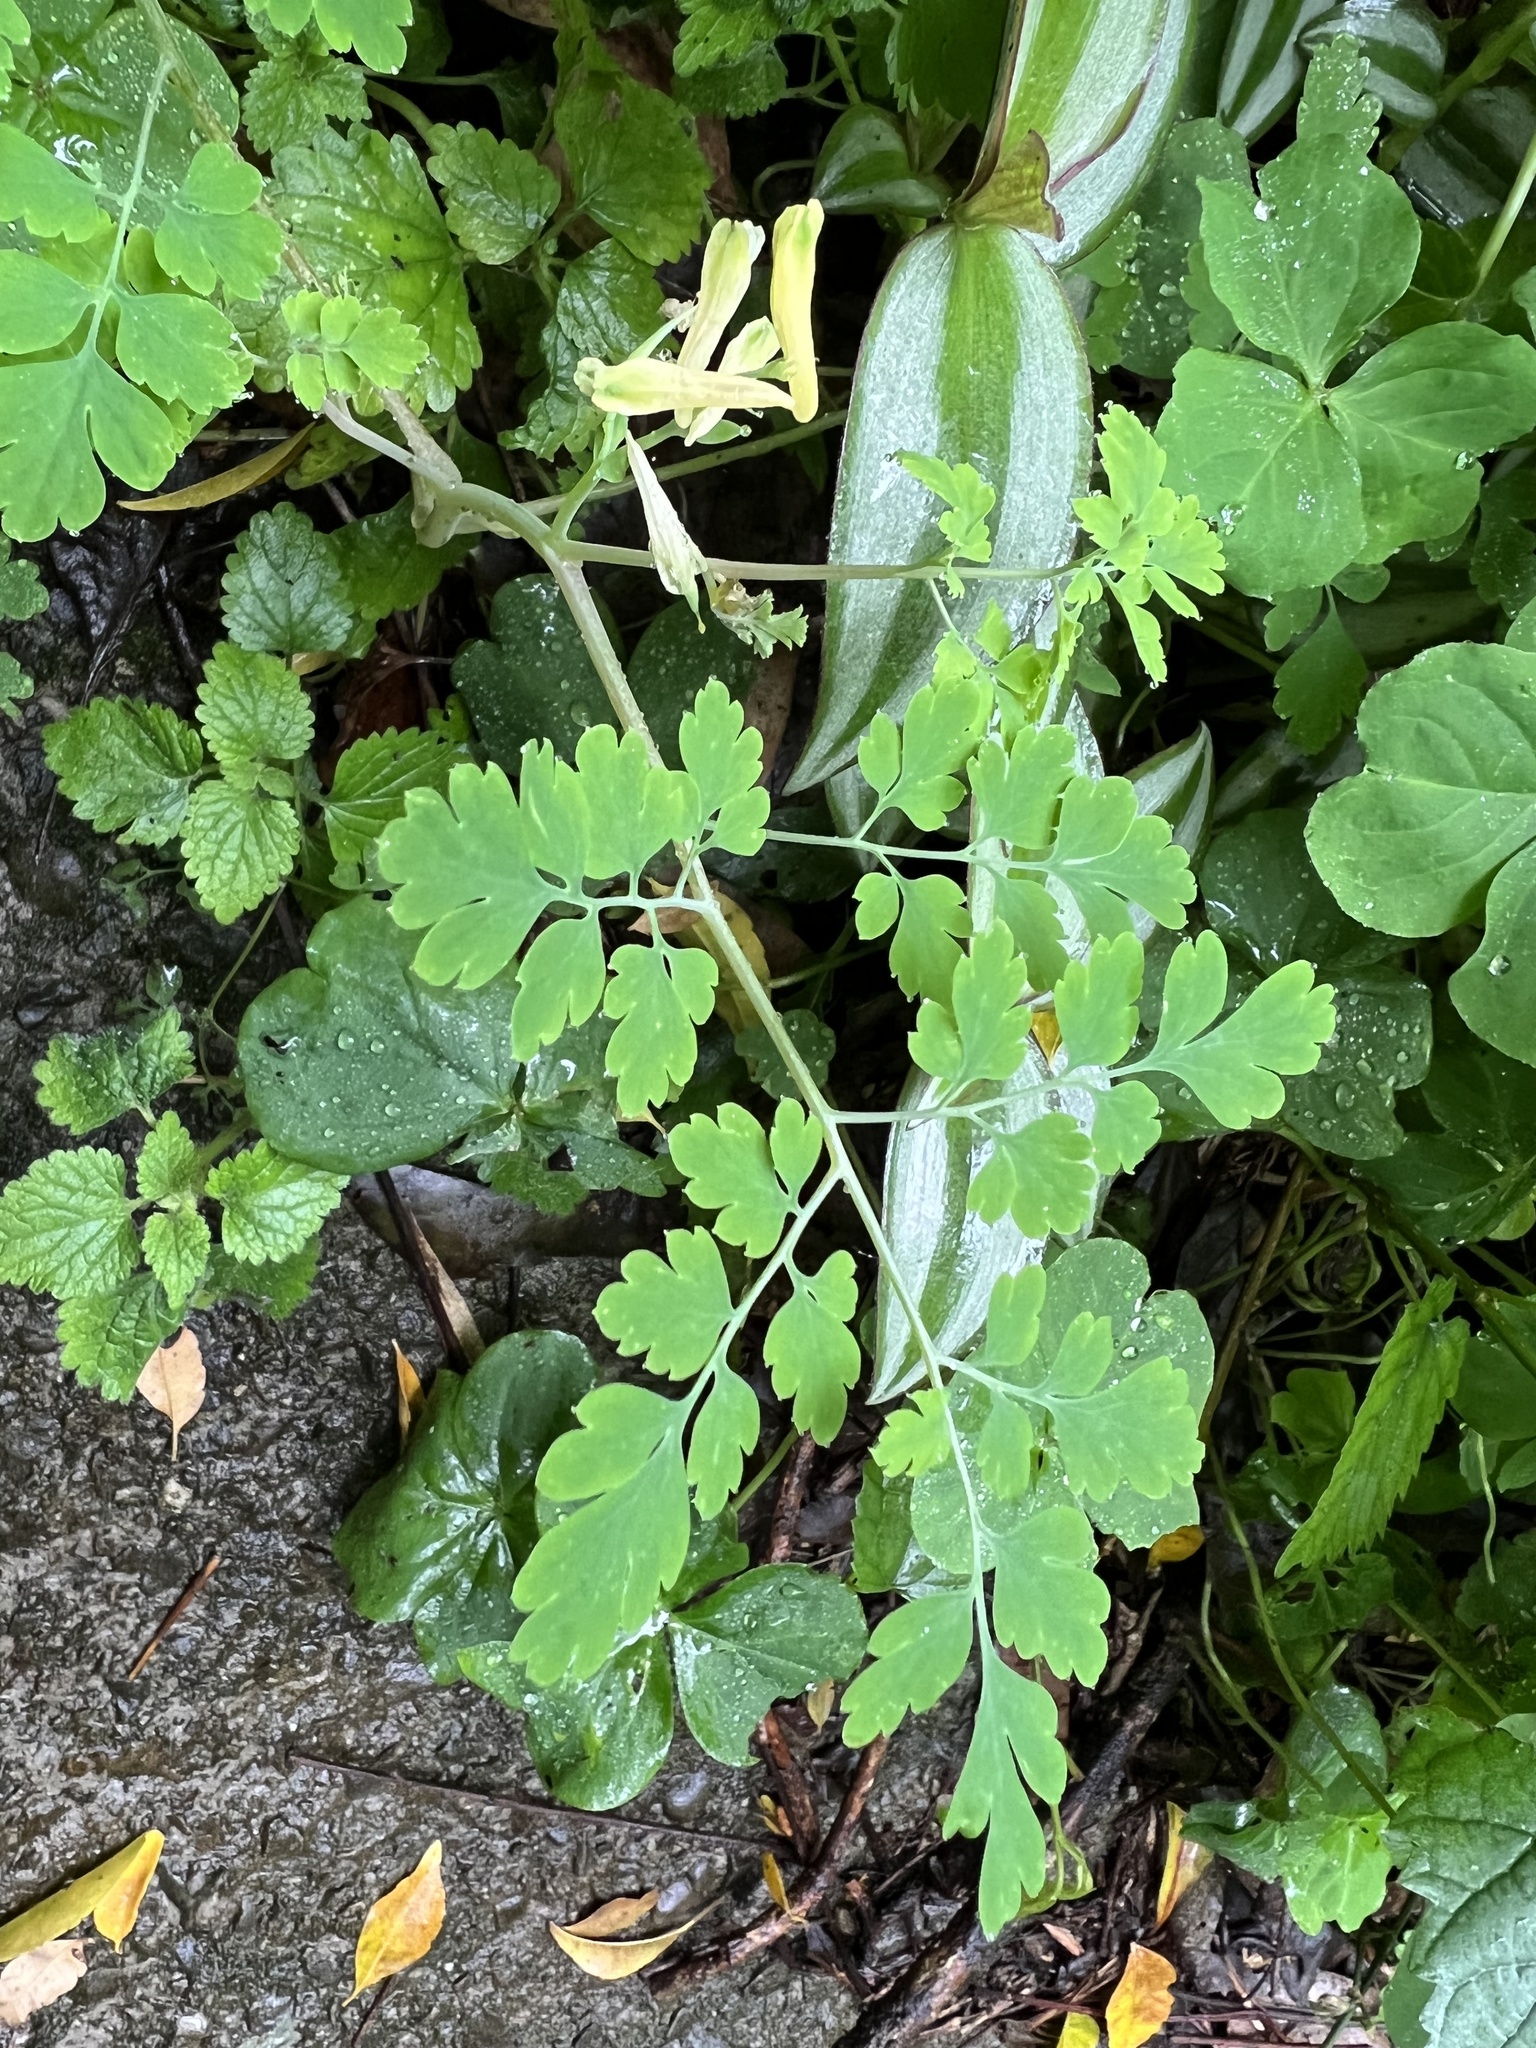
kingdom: Plantae
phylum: Tracheophyta
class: Magnoliopsida
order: Ranunculales
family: Papaveraceae
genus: Corydalis
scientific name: Corydalis balansae
